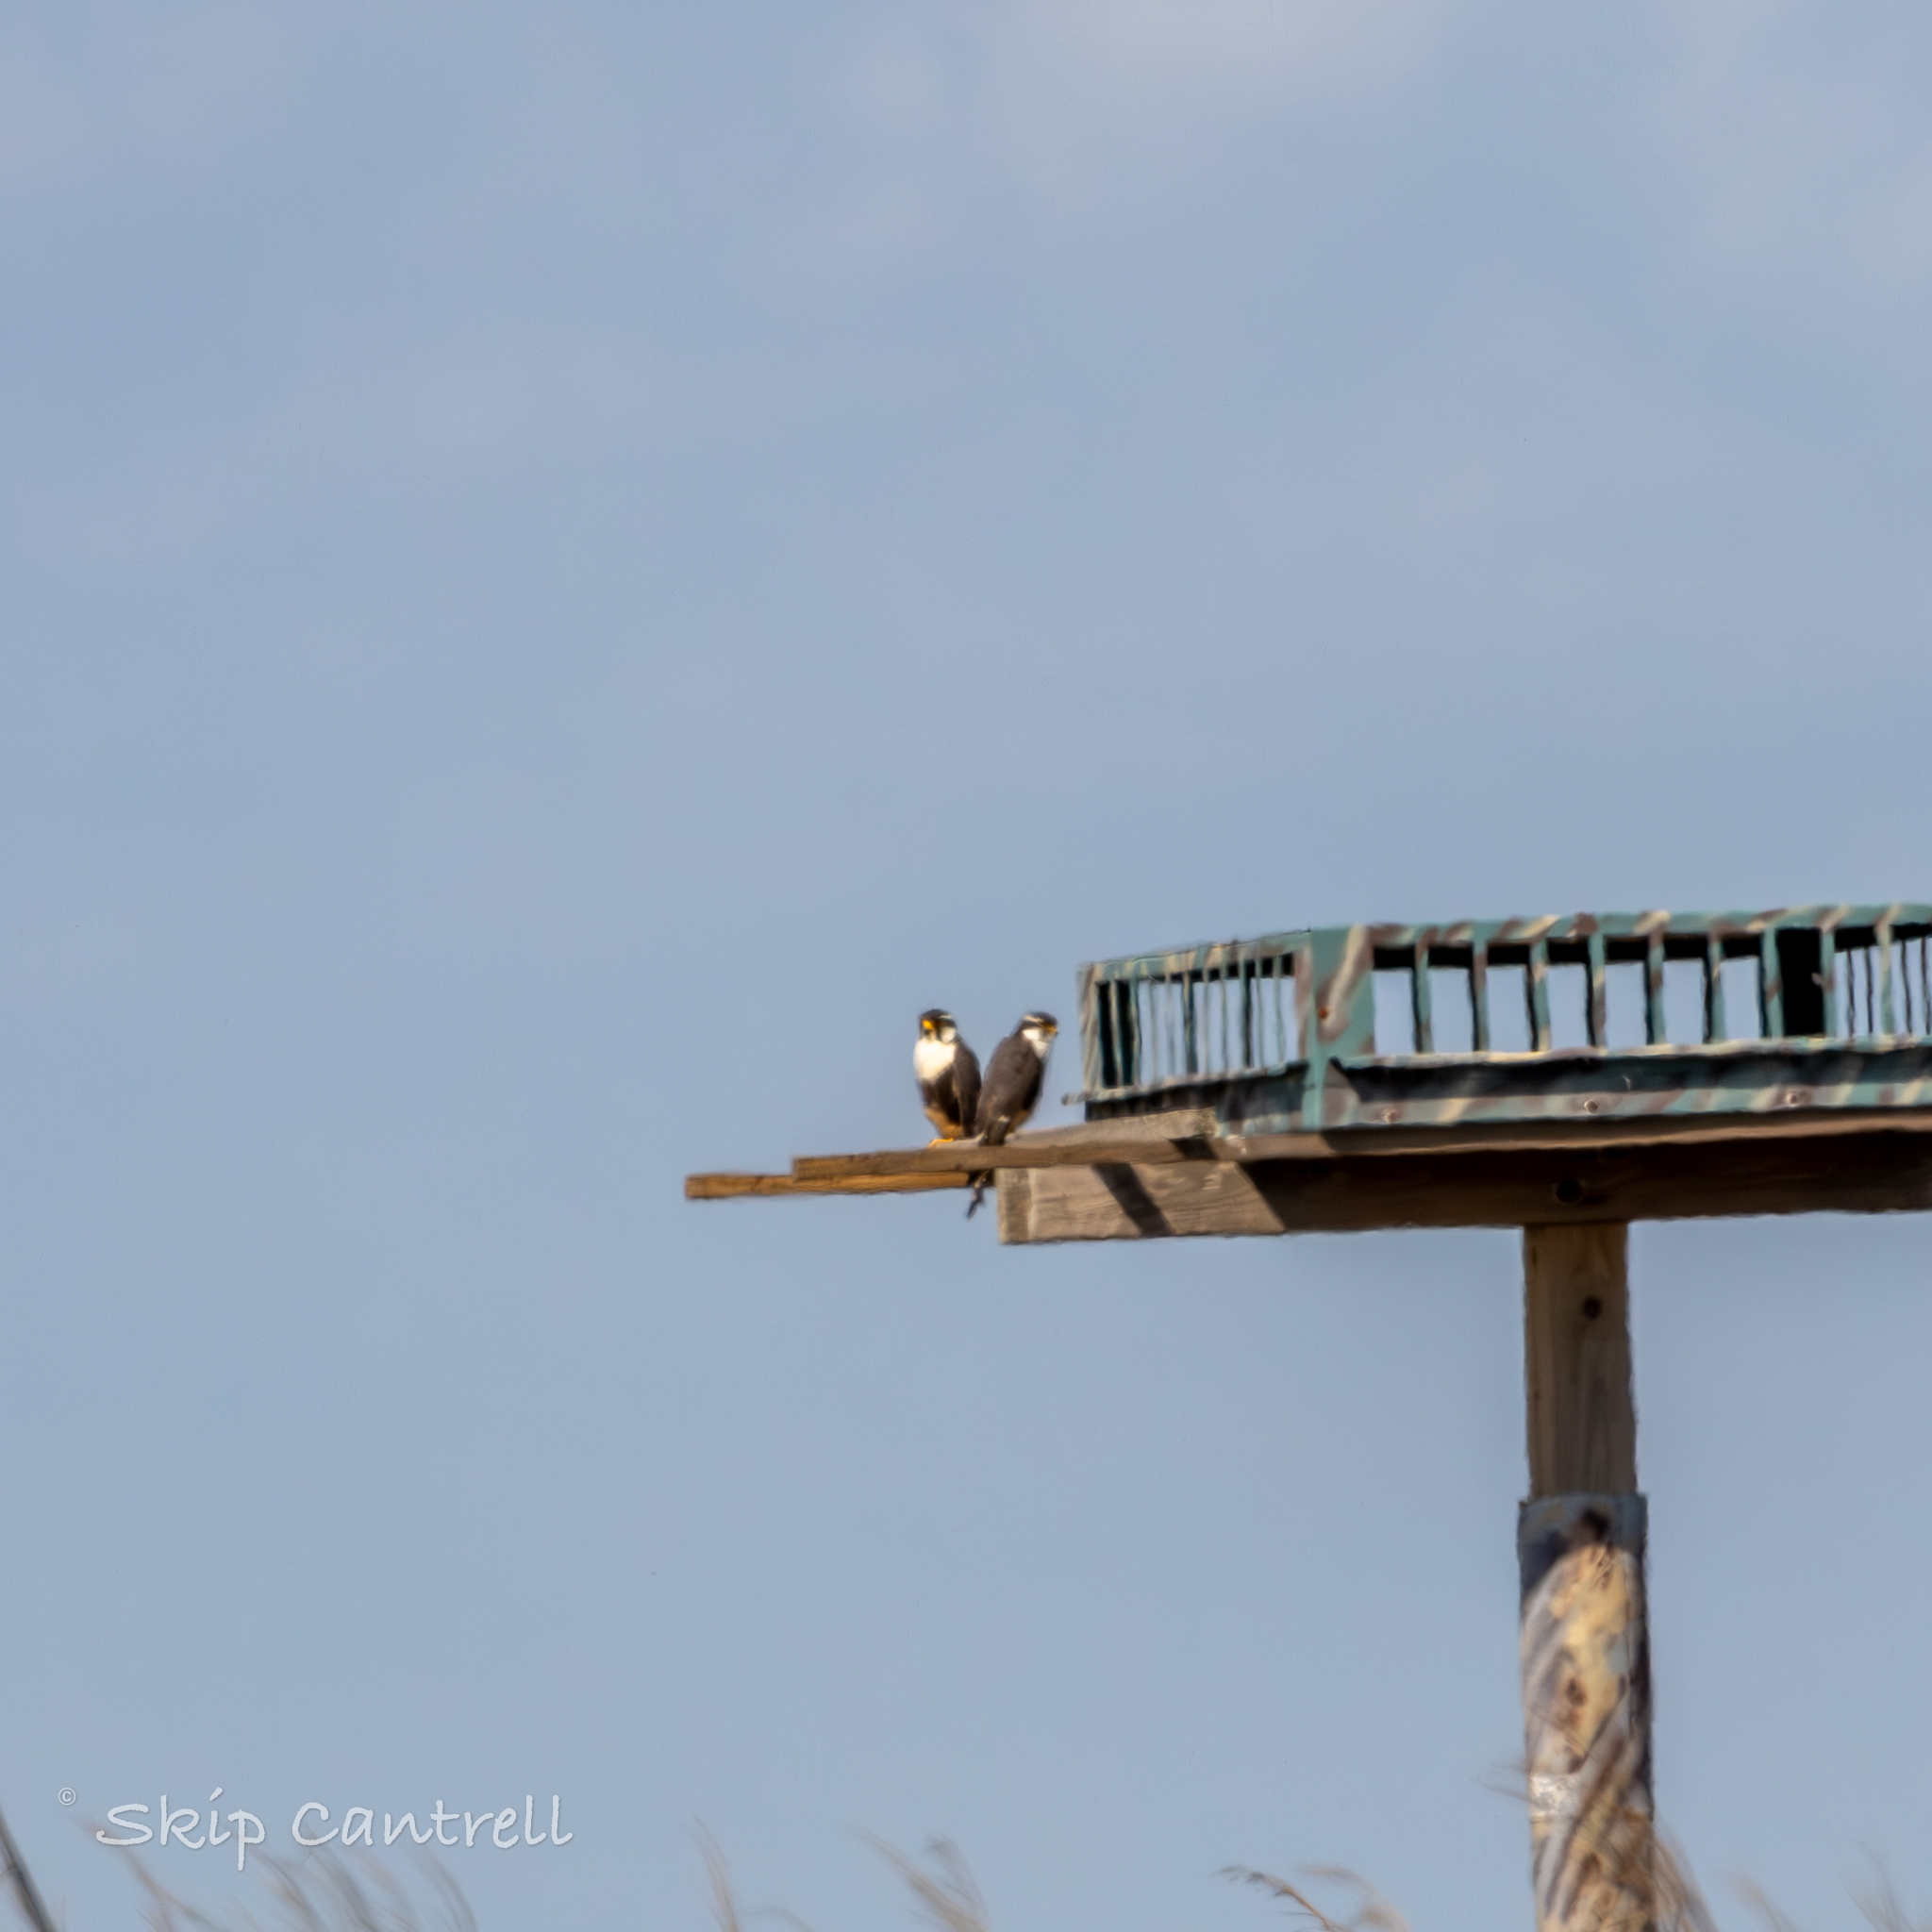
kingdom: Animalia
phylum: Chordata
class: Aves
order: Falconiformes
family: Falconidae
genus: Falco
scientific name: Falco femoralis
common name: Aplomado falcon
